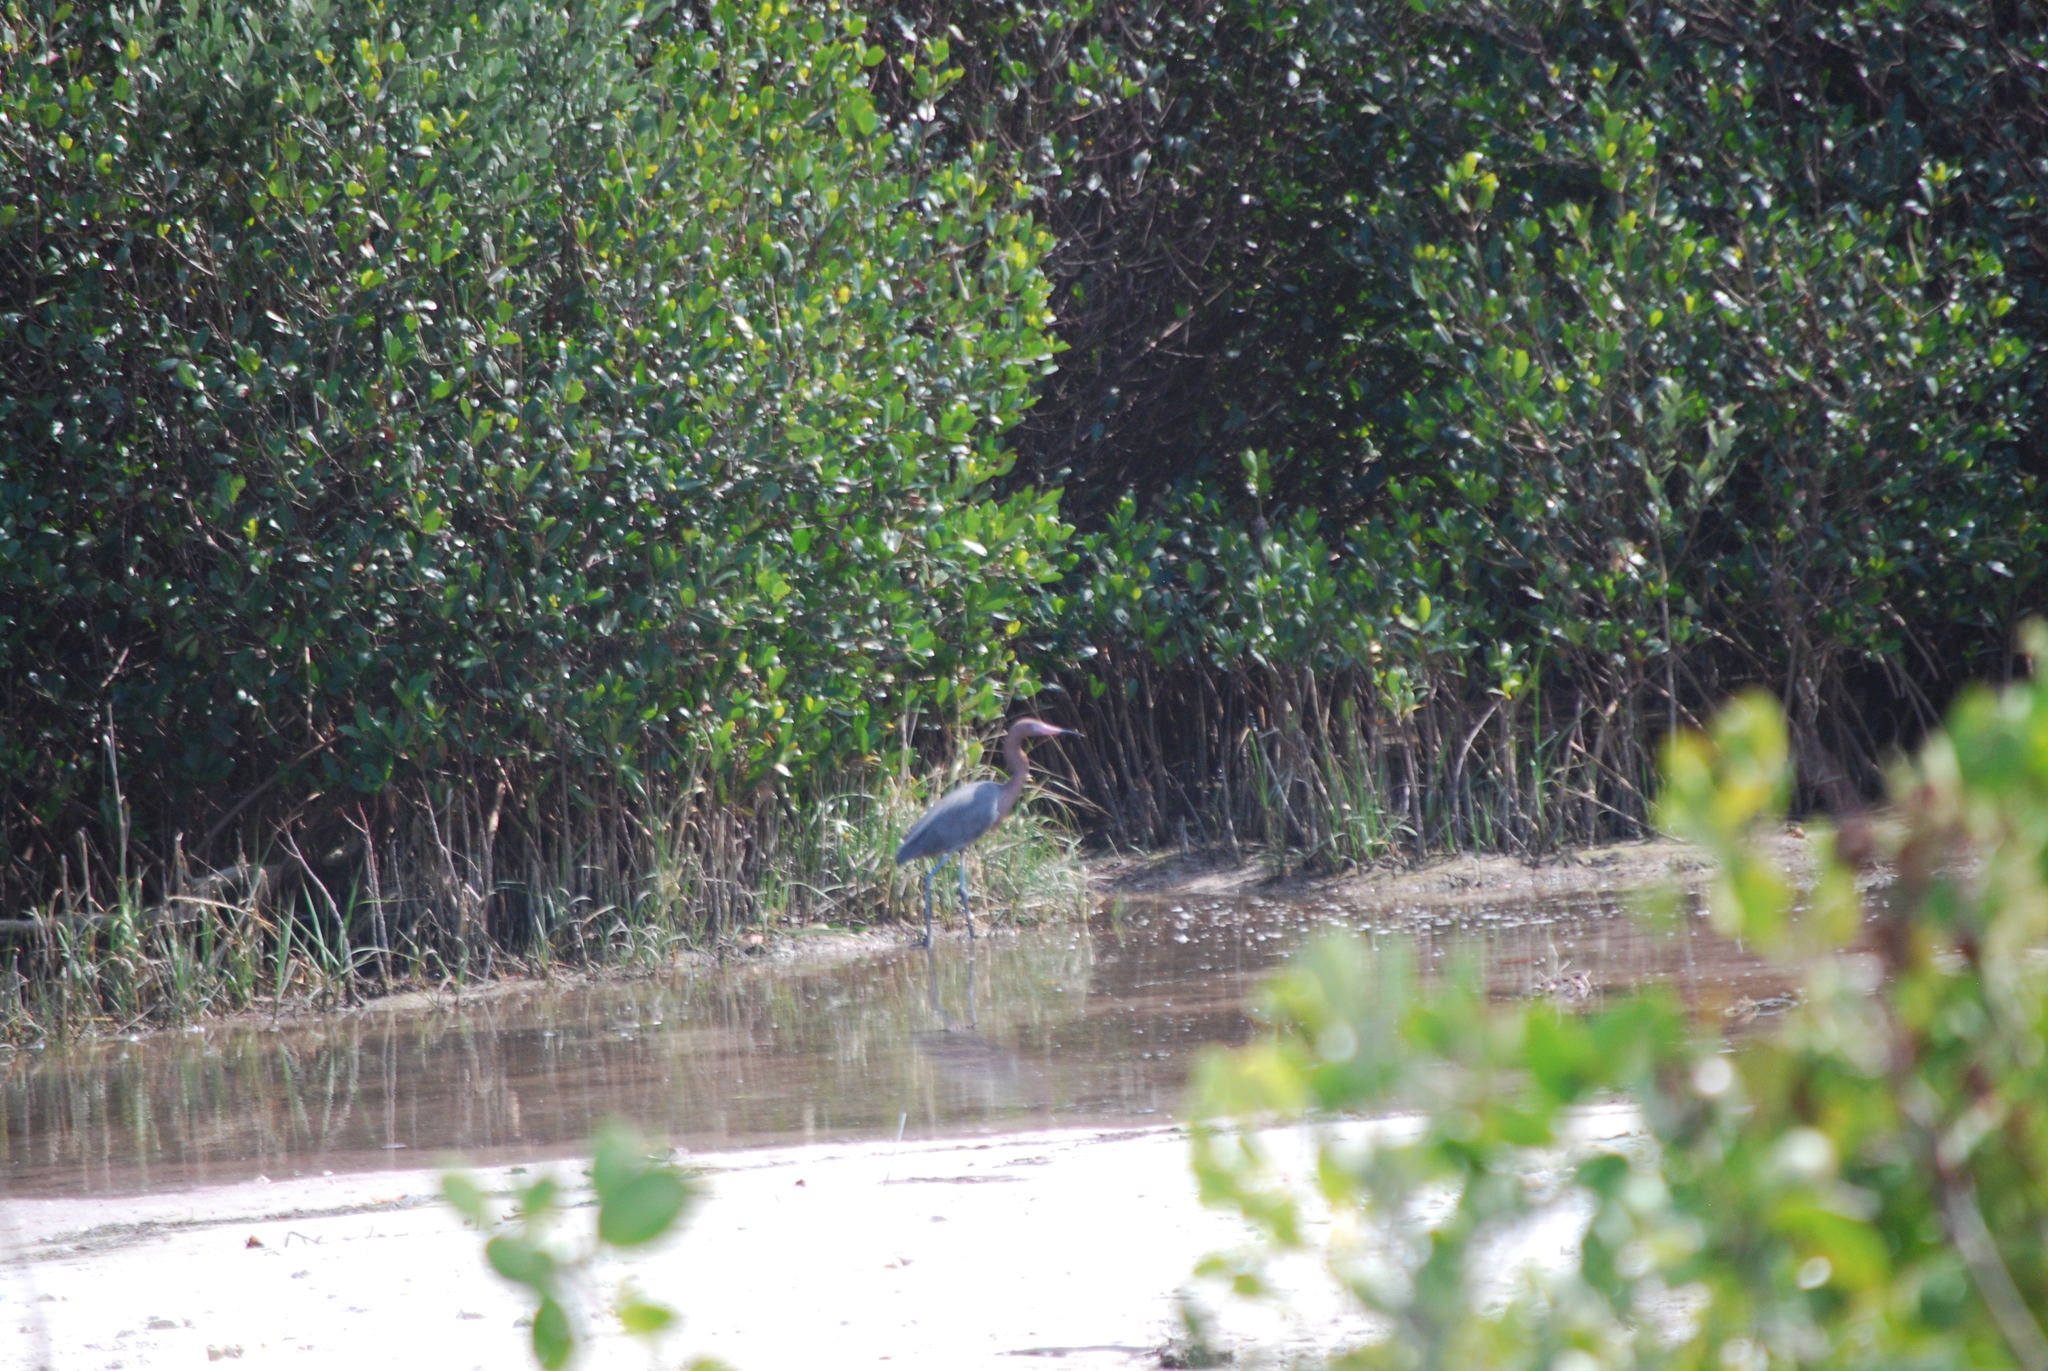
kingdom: Animalia
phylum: Chordata
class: Aves
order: Pelecaniformes
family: Ardeidae
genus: Egretta
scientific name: Egretta rufescens
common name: Reddish egret
